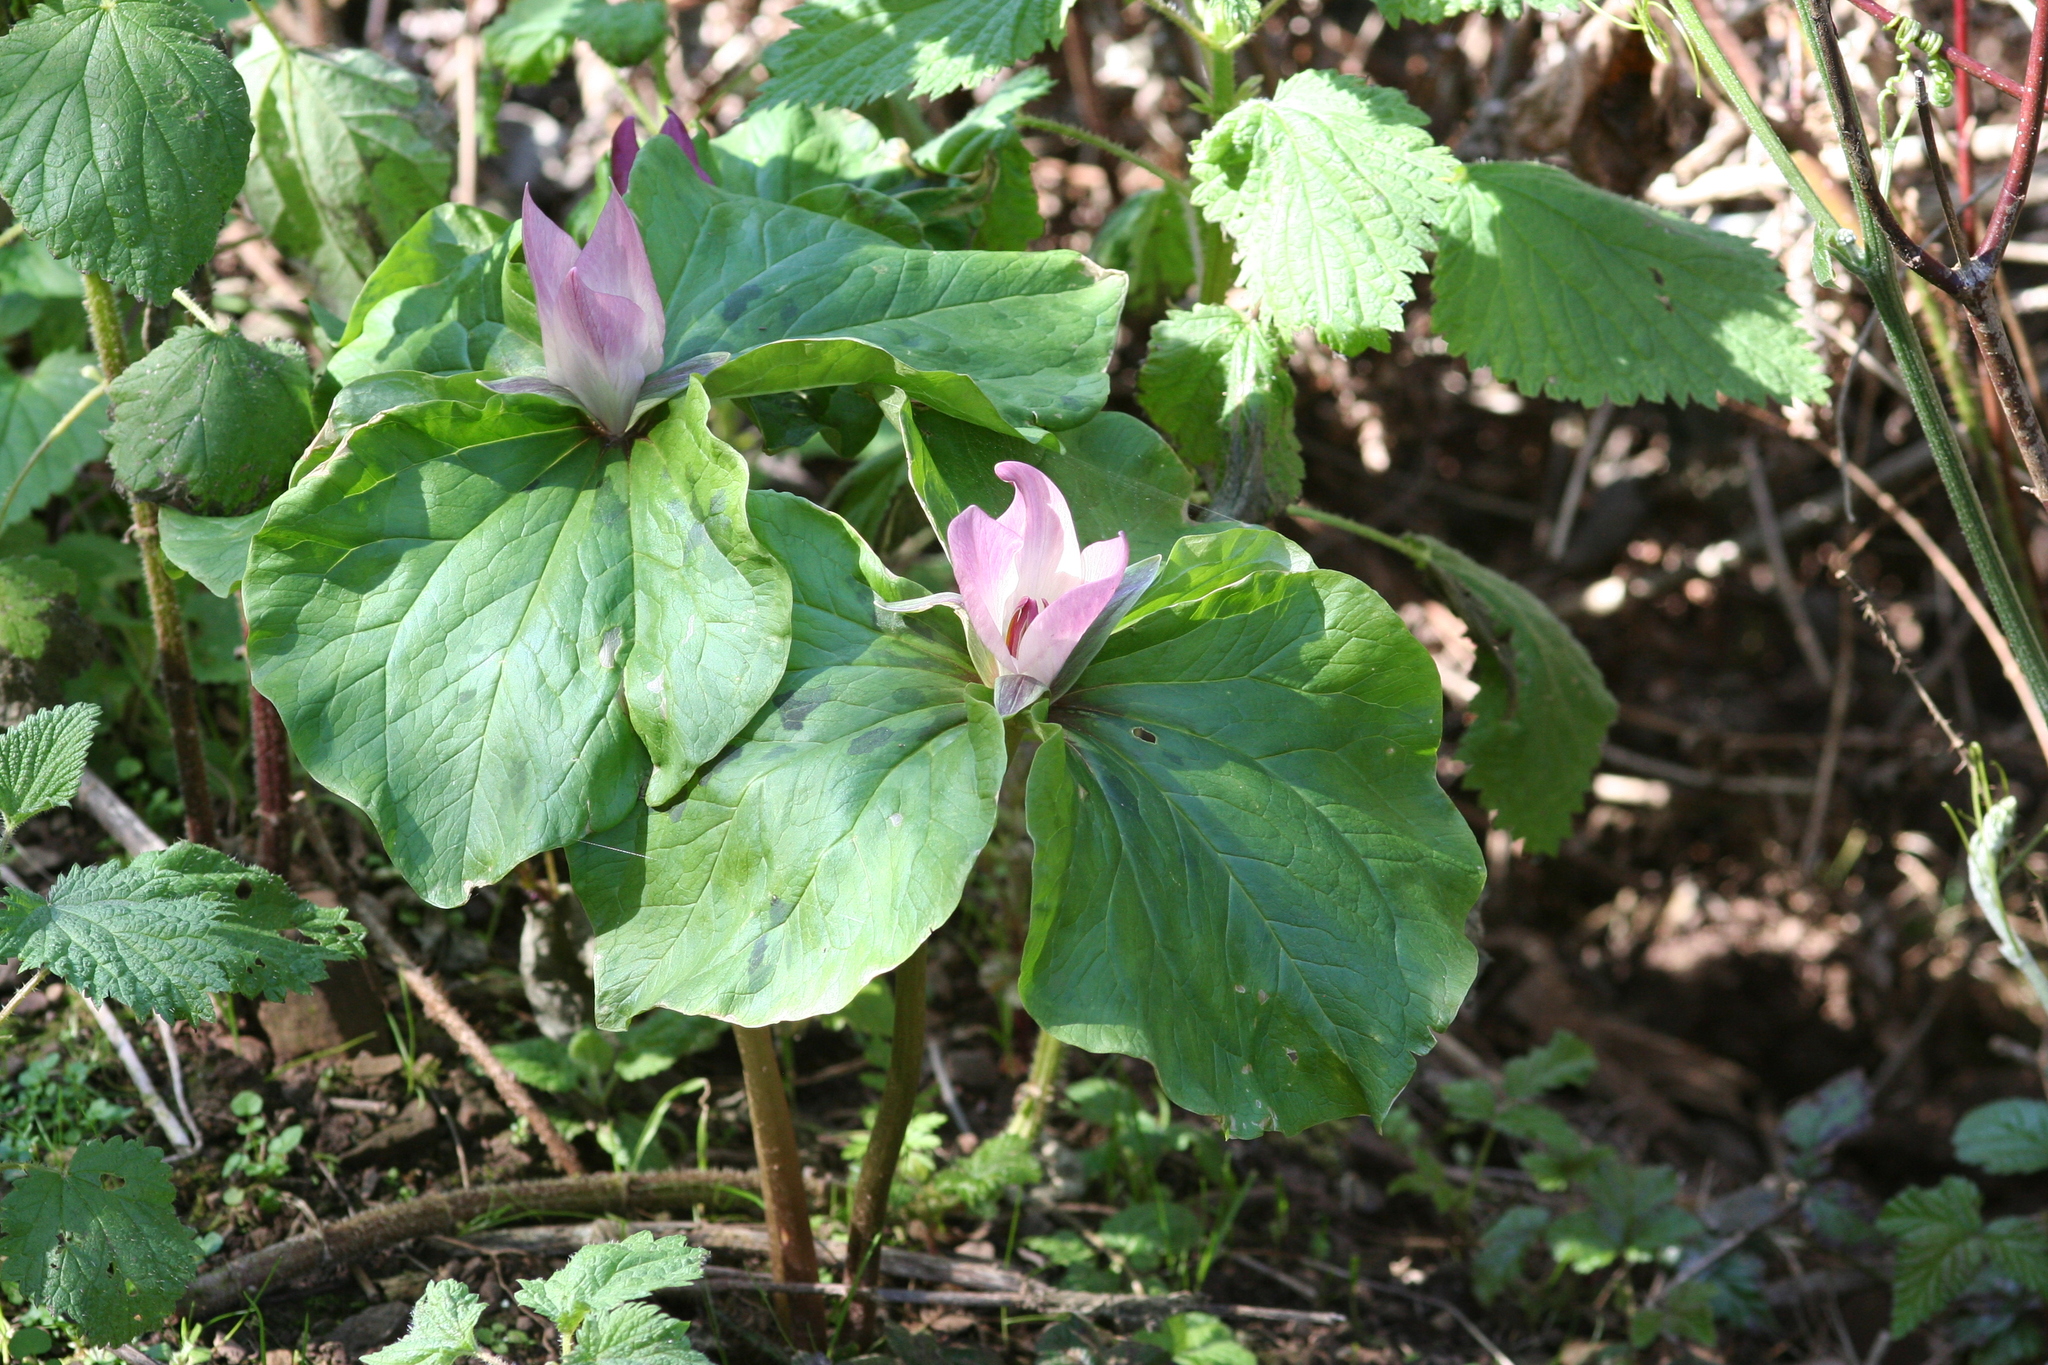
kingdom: Plantae
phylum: Tracheophyta
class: Liliopsida
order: Liliales
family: Melanthiaceae
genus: Trillium
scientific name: Trillium chloropetalum
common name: Giant trillium
